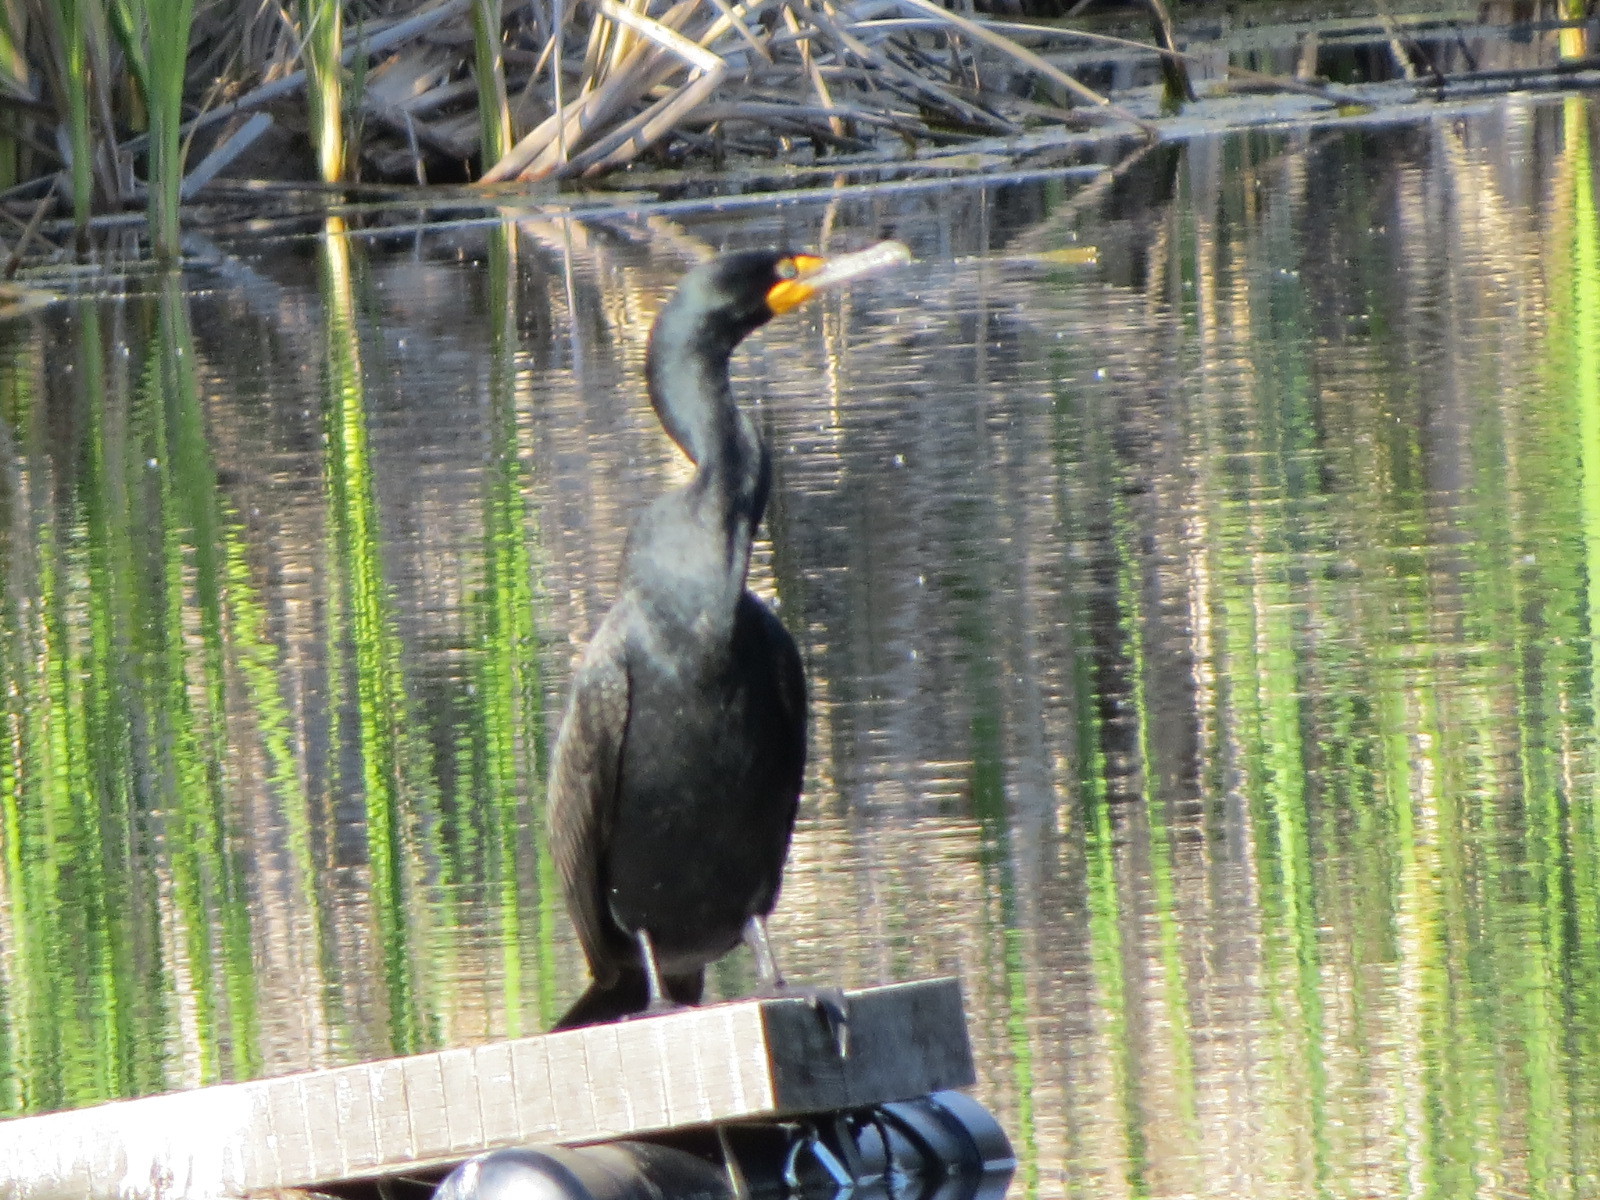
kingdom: Animalia
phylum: Chordata
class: Aves
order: Suliformes
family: Phalacrocoracidae
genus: Phalacrocorax
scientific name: Phalacrocorax auritus
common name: Double-crested cormorant
